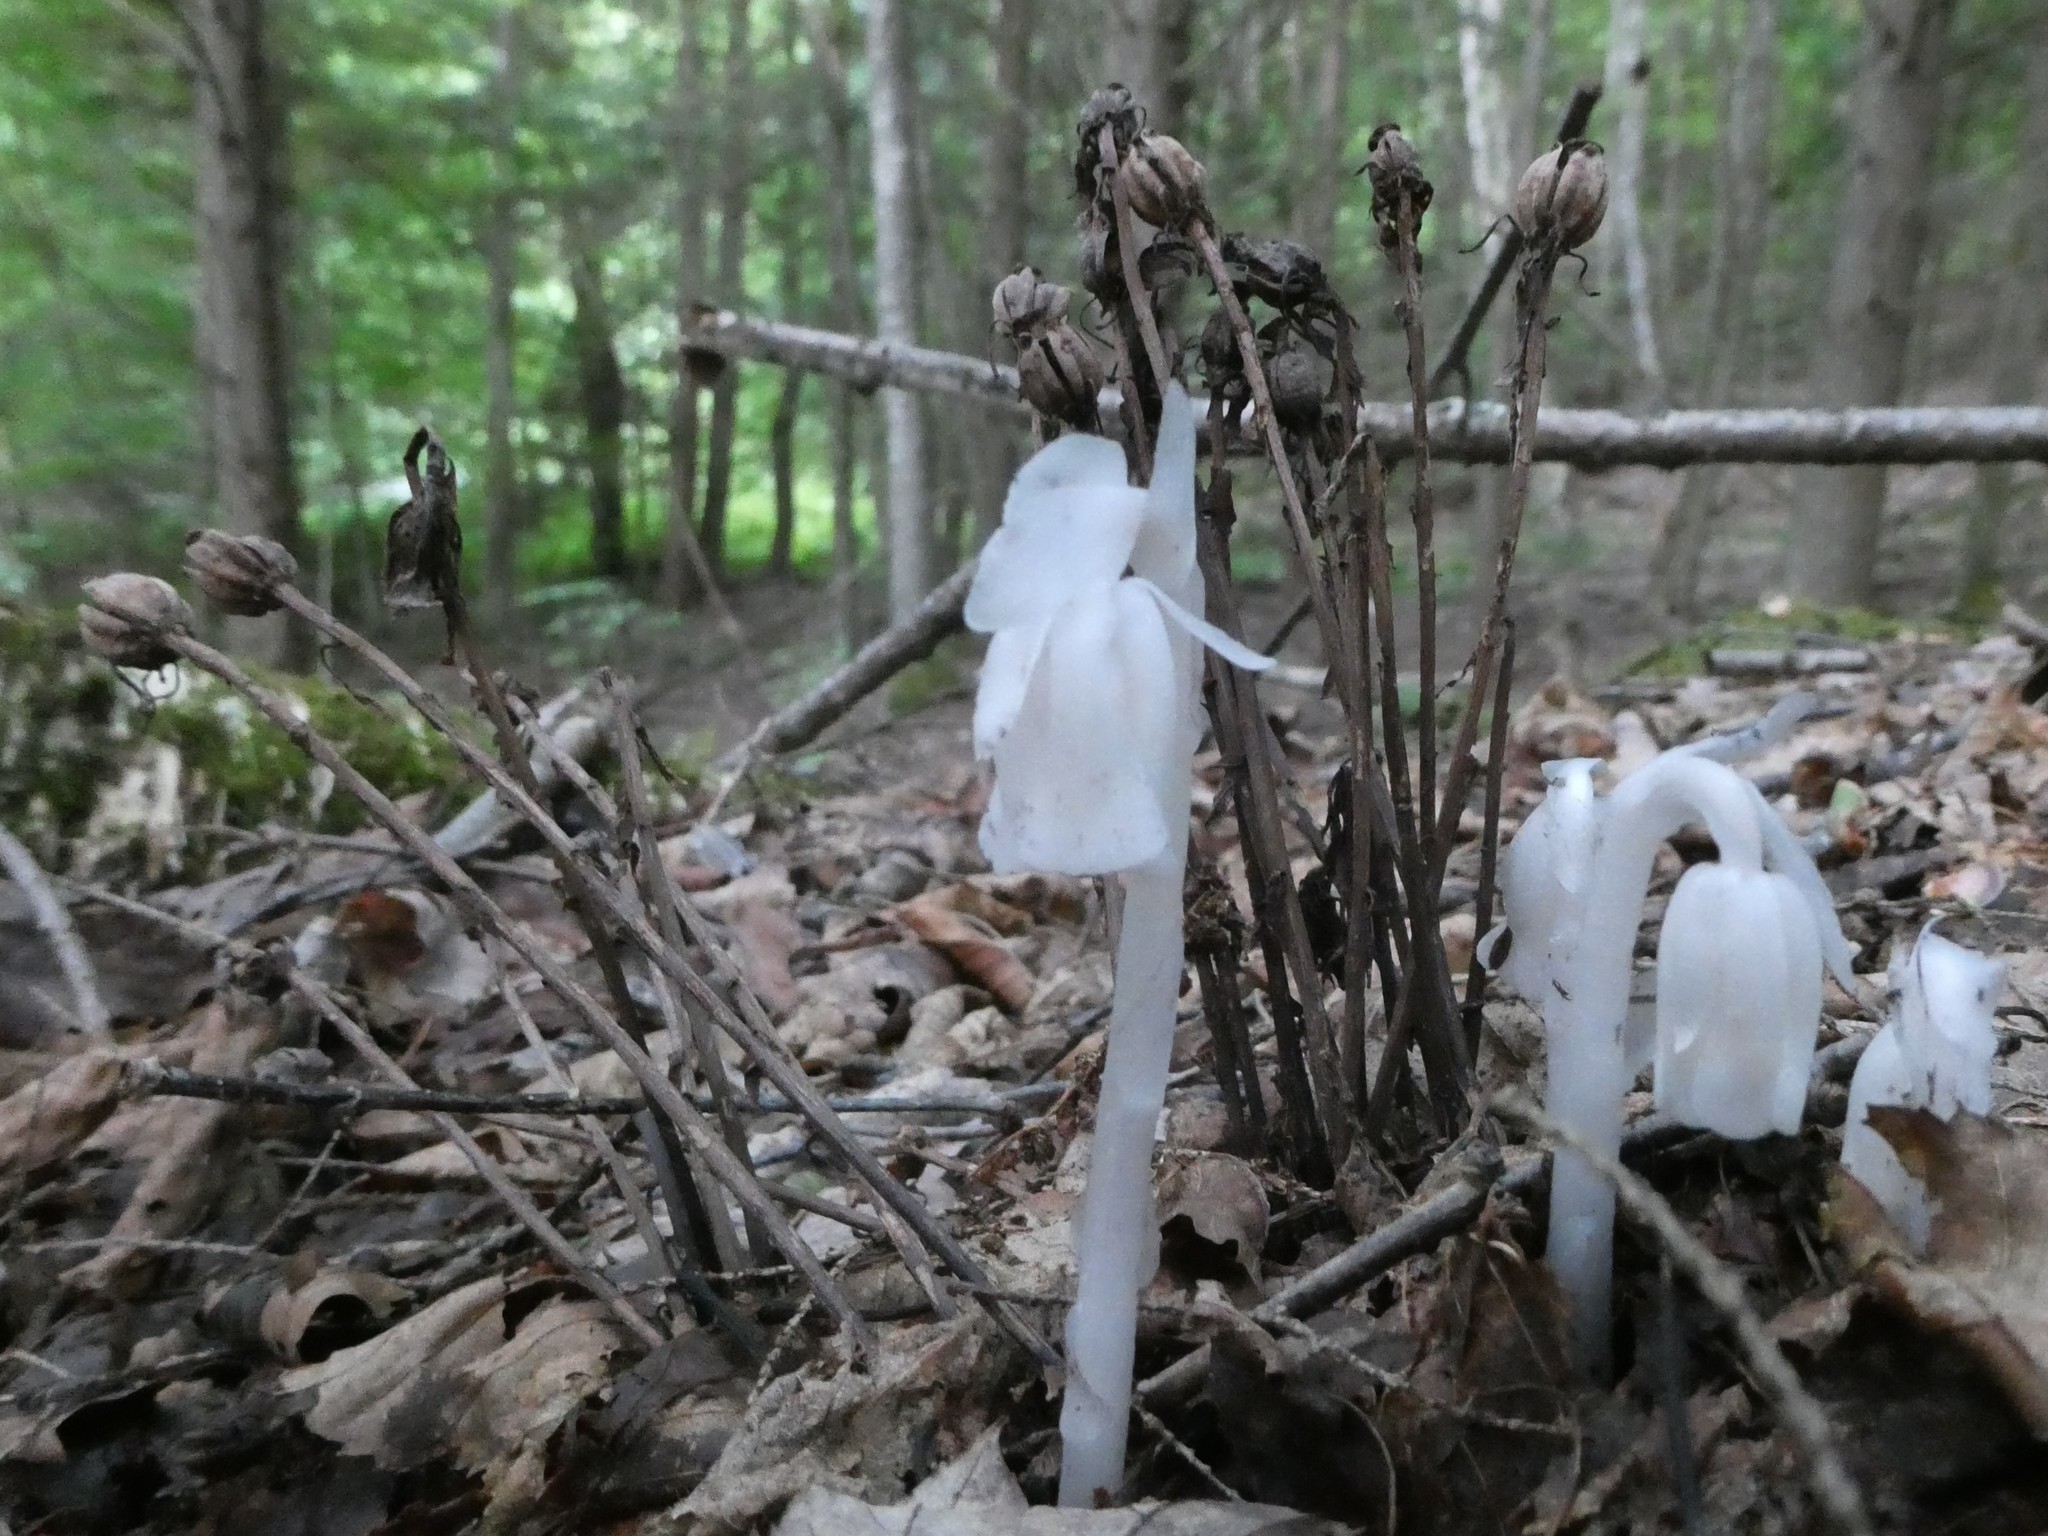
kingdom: Plantae
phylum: Tracheophyta
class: Magnoliopsida
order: Ericales
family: Ericaceae
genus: Monotropa
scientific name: Monotropa uniflora
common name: Convulsion root
